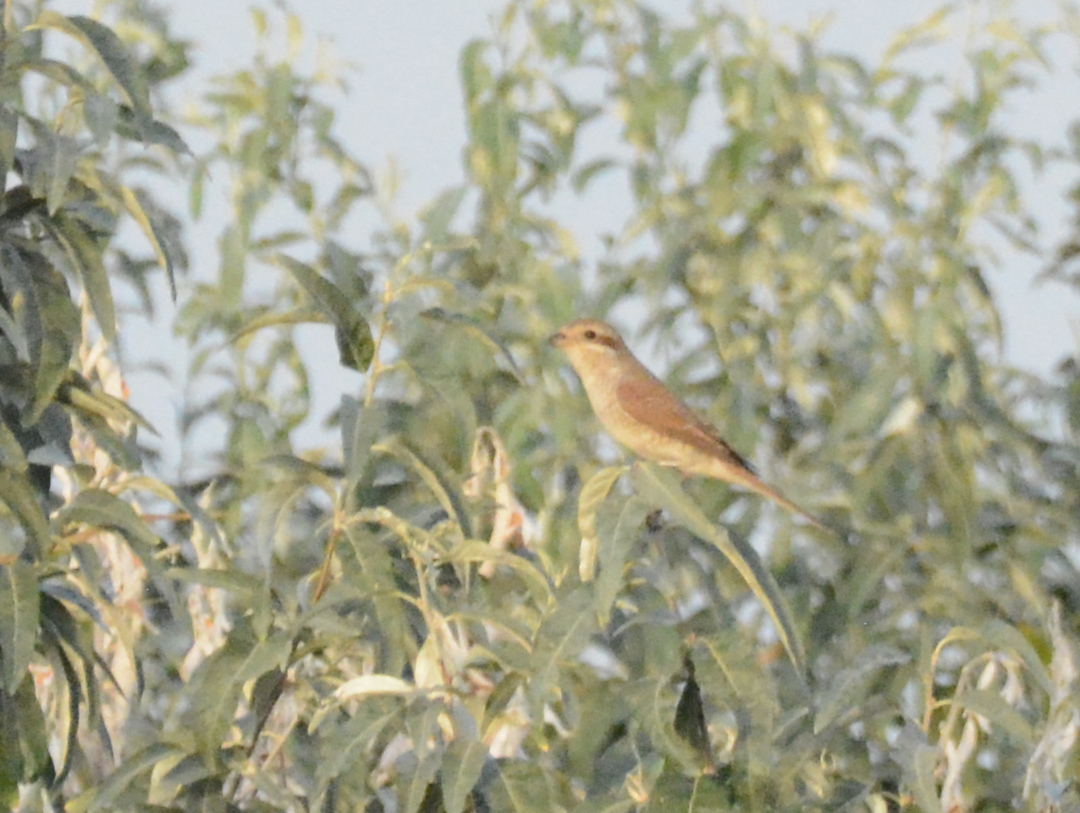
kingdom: Animalia
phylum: Chordata
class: Aves
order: Passeriformes
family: Laniidae
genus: Lanius
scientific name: Lanius collurio
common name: Red-backed shrike
